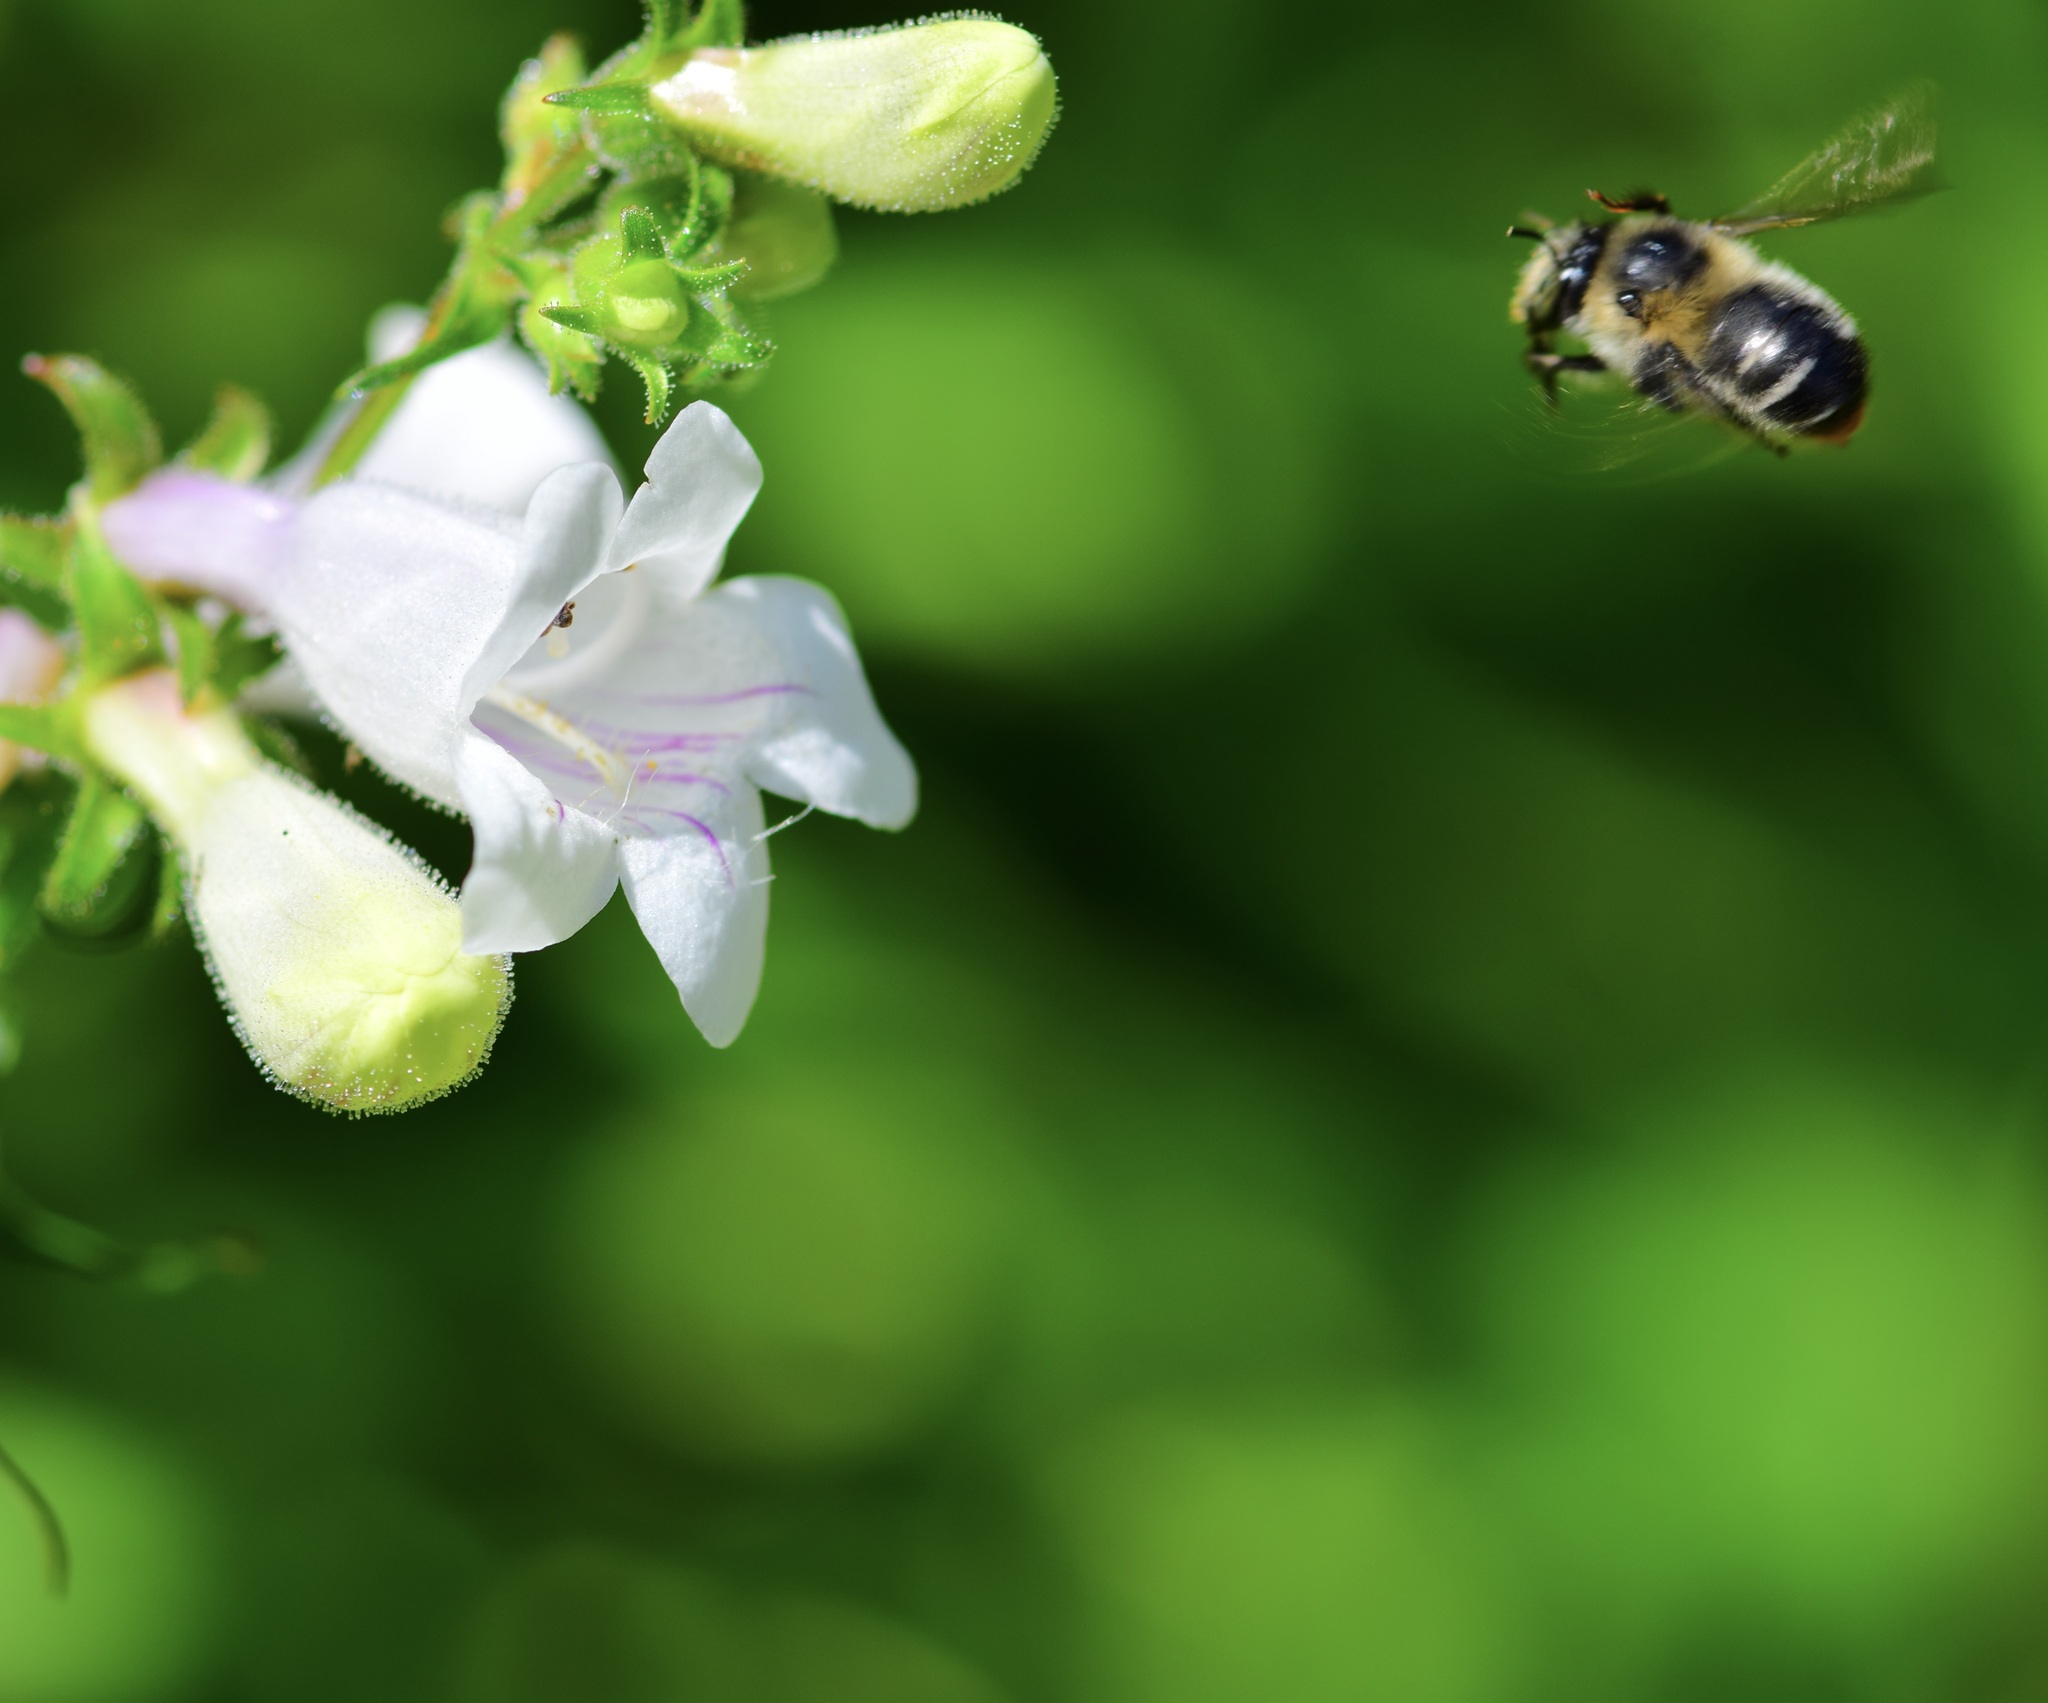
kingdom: Animalia
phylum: Arthropoda
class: Insecta
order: Hymenoptera
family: Apidae
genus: Anthophora
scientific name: Anthophora terminalis
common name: Orange-tipped wood-digger bee
